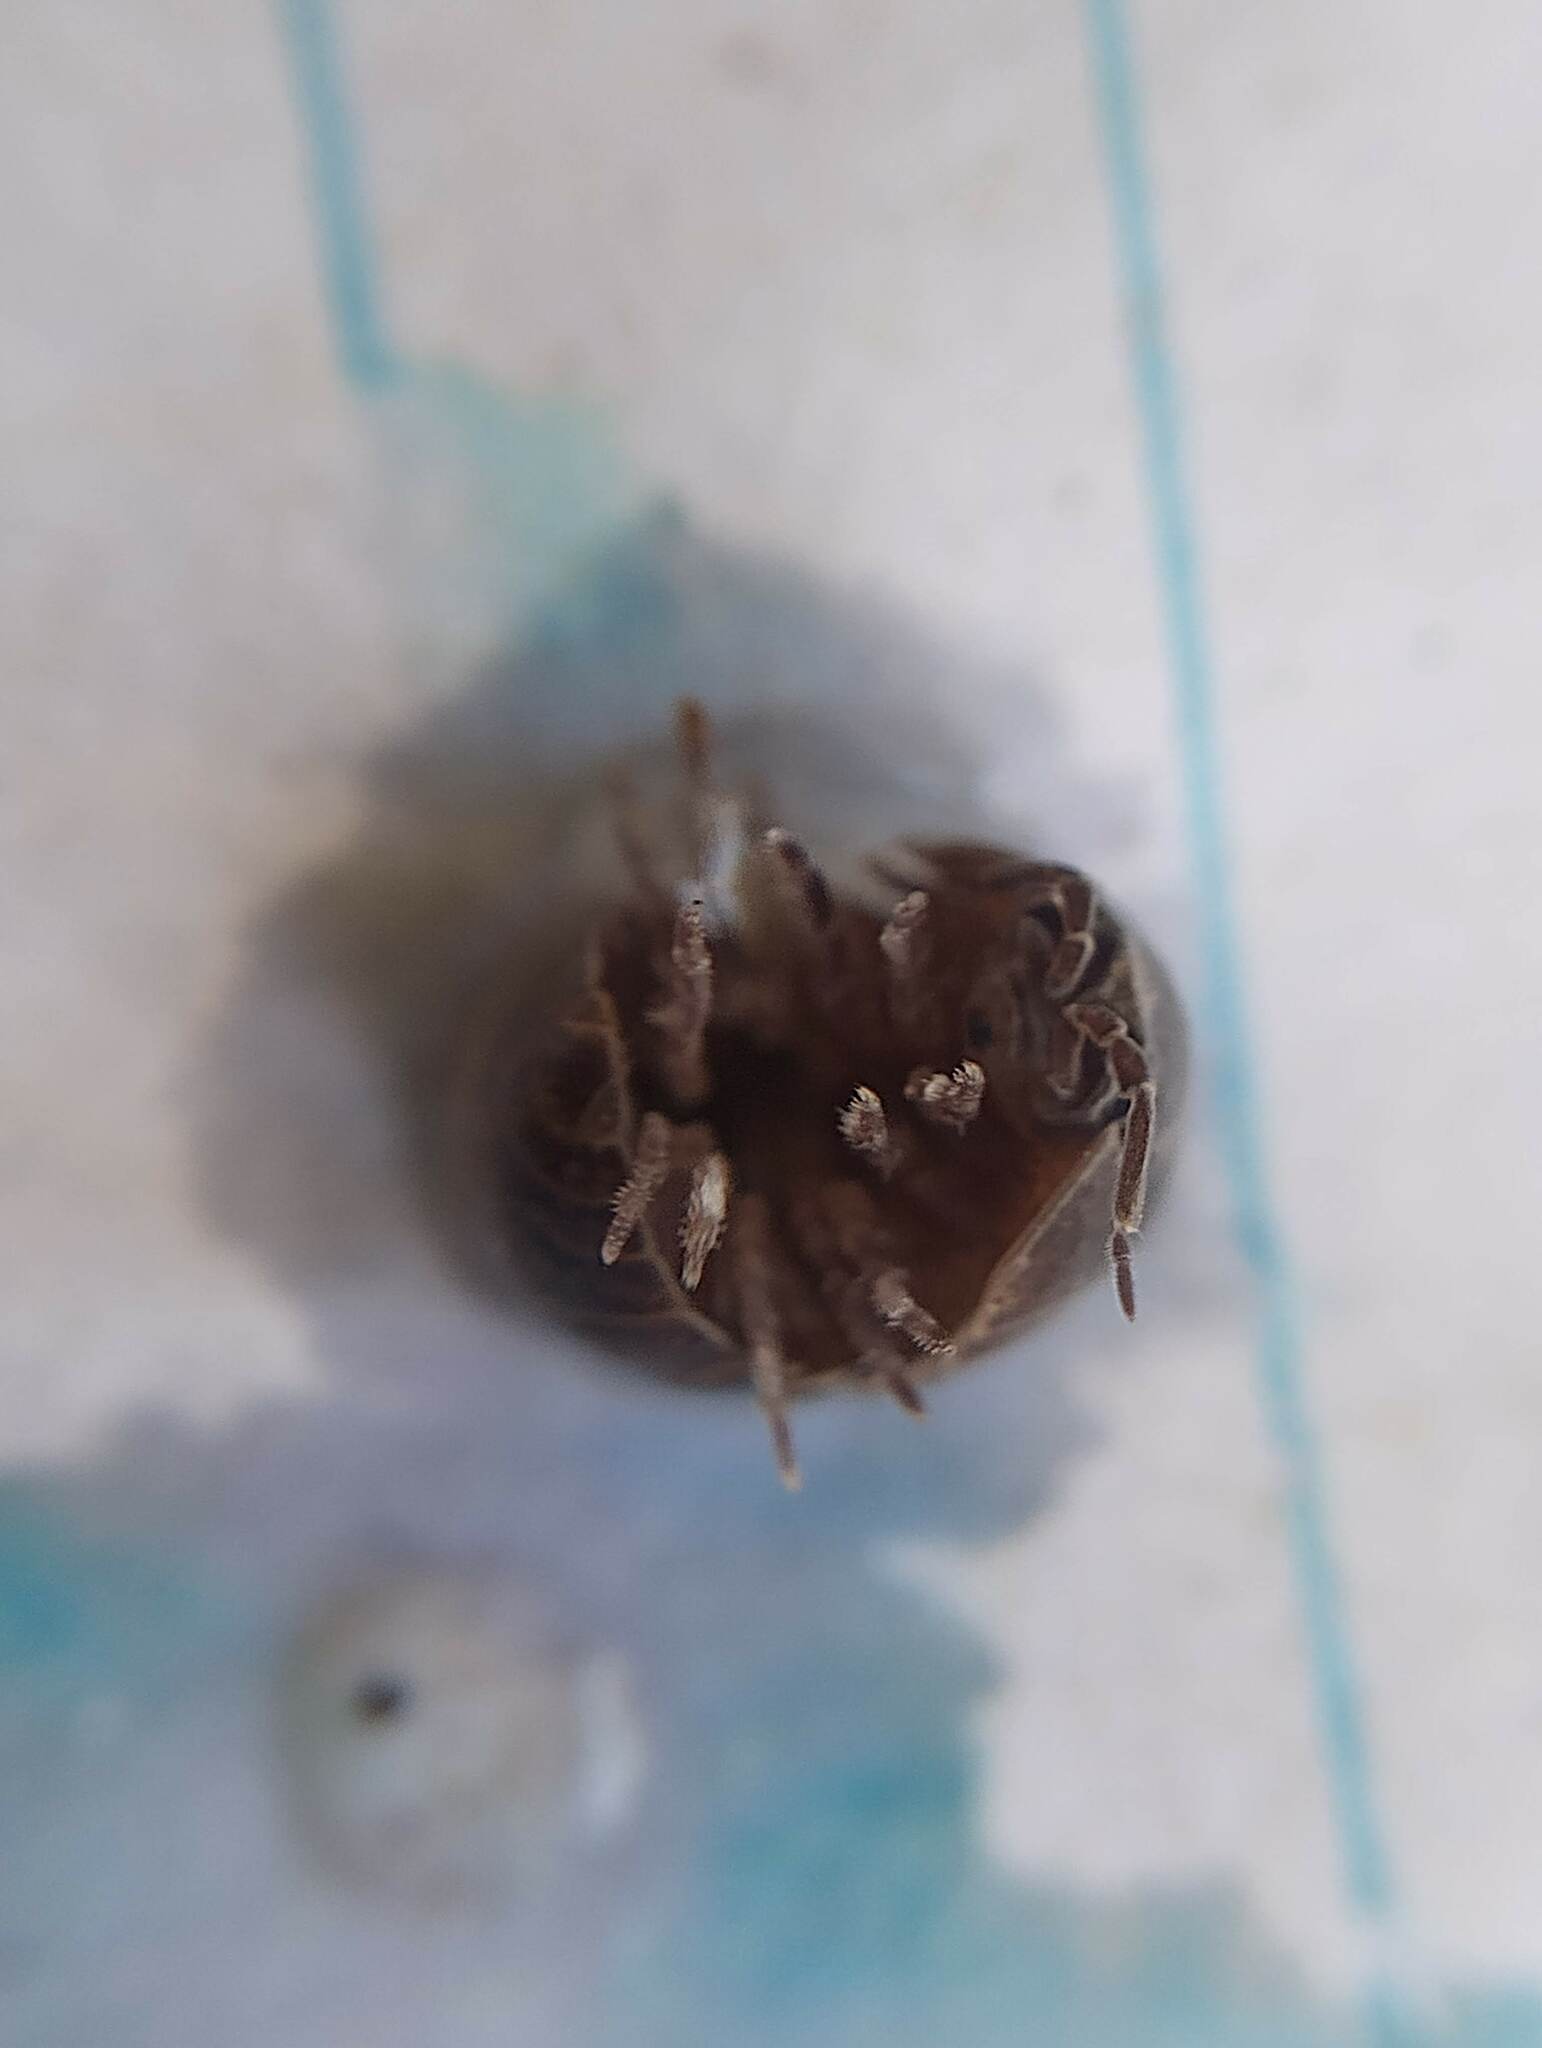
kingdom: Animalia
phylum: Arthropoda
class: Malacostraca
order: Isopoda
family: Armadillidiidae
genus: Armadillidium
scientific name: Armadillidium vulgare
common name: Common pill woodlouse
